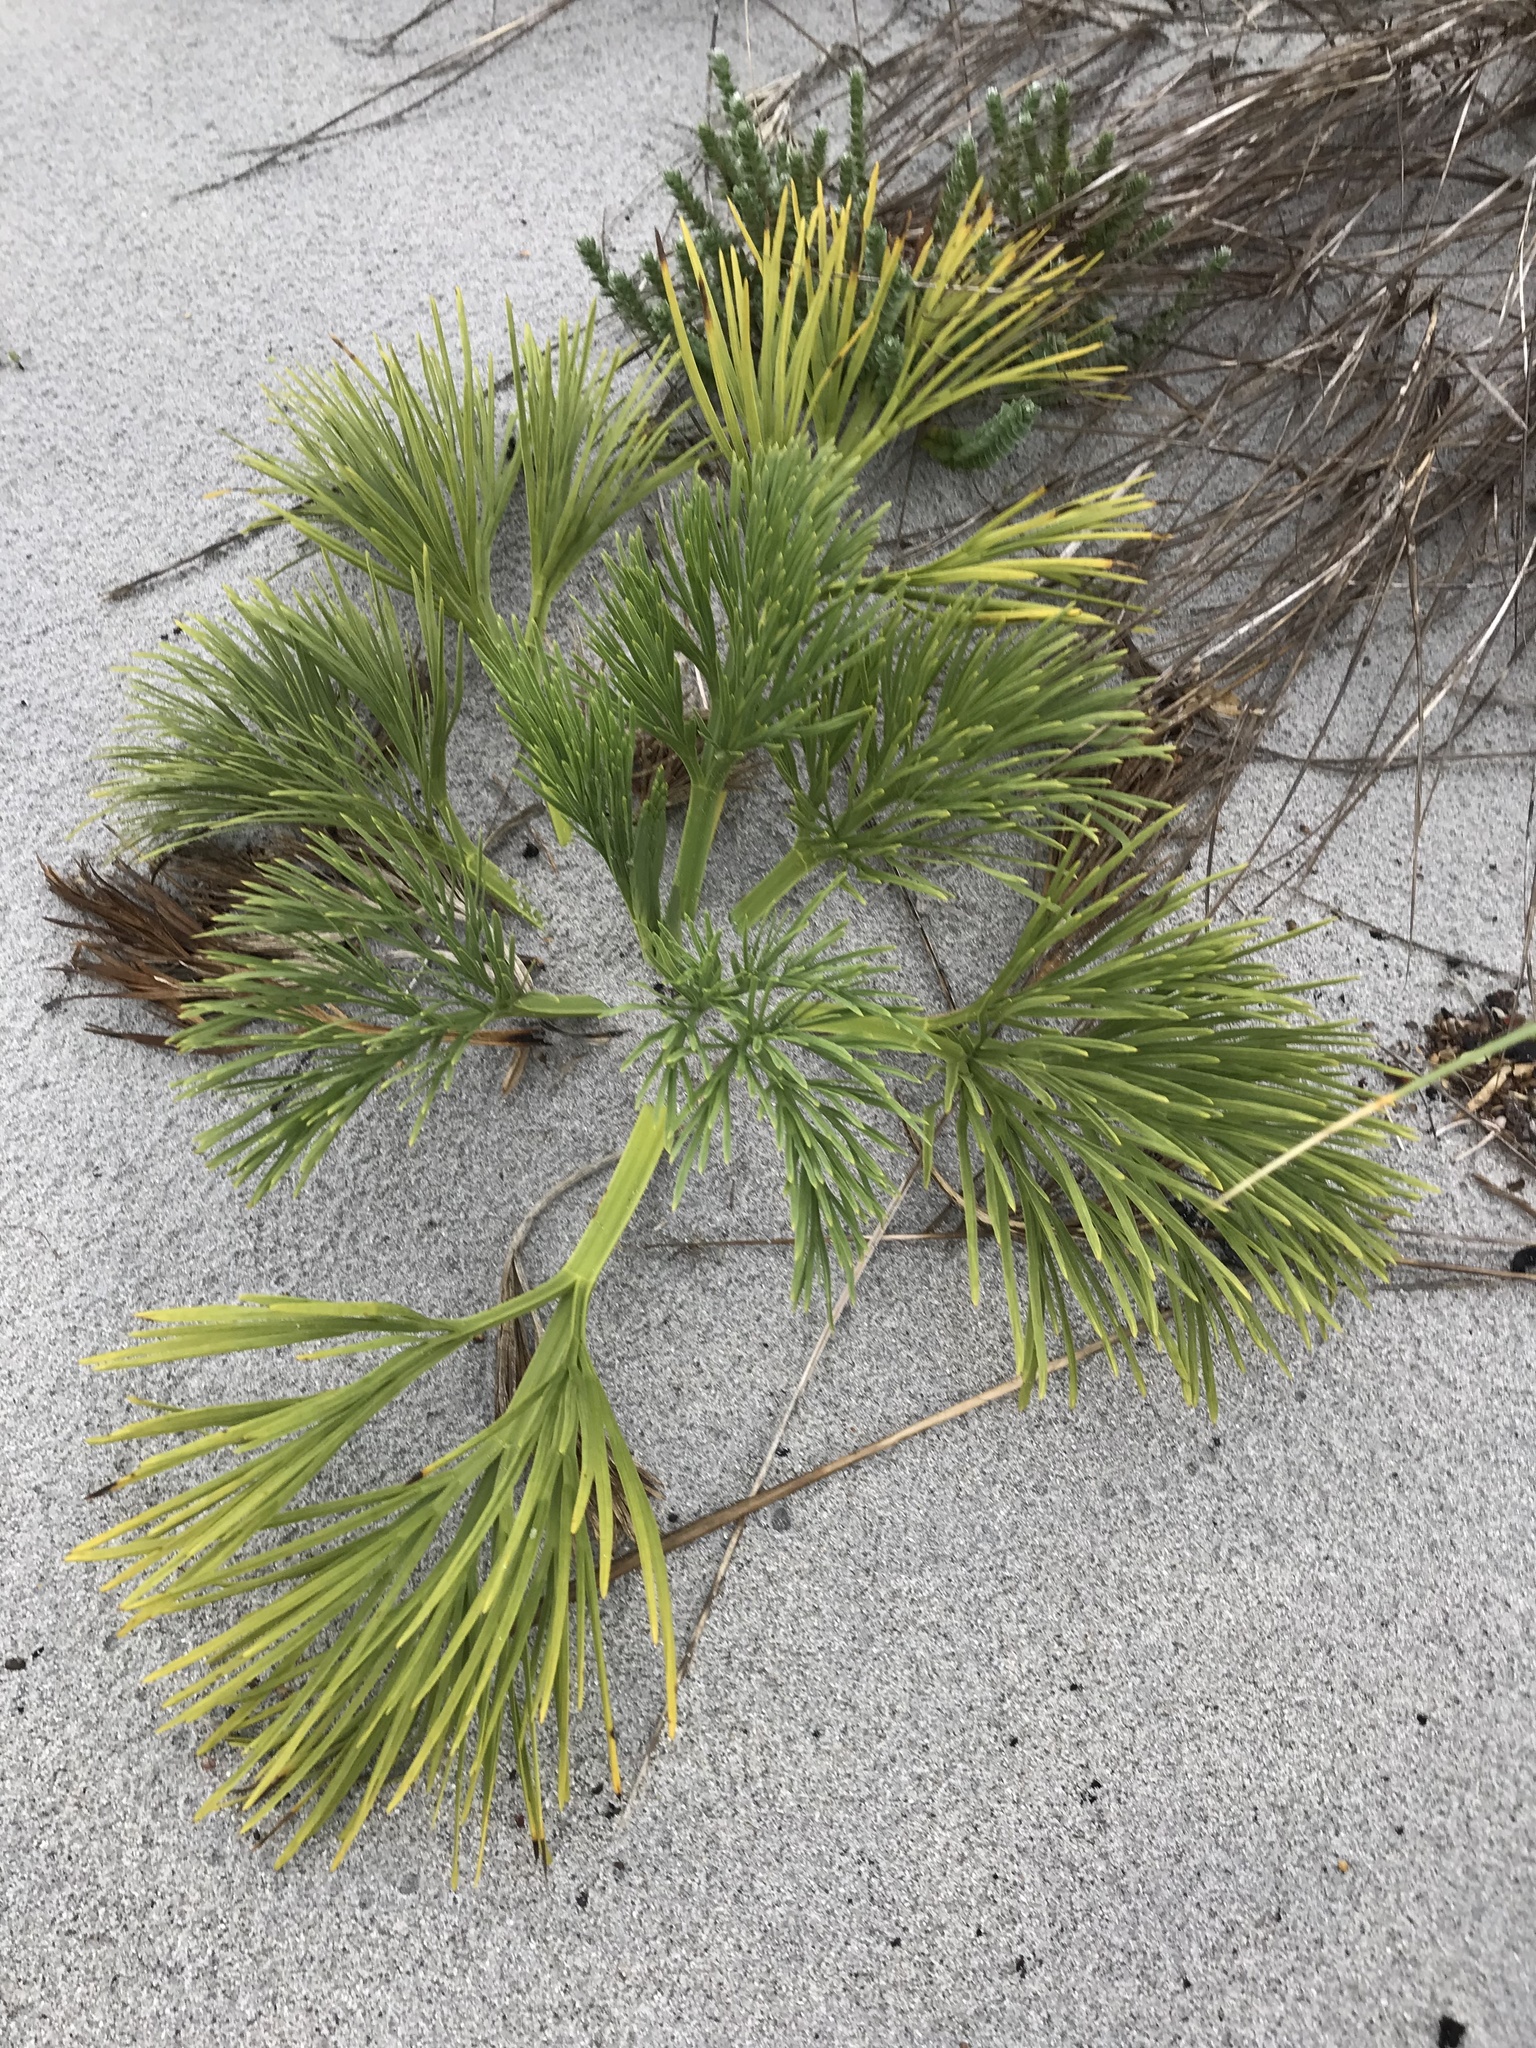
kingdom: Plantae
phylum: Tracheophyta
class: Magnoliopsida
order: Apiales
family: Apiaceae
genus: Aciphylla
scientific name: Aciphylla dieffenbachii
